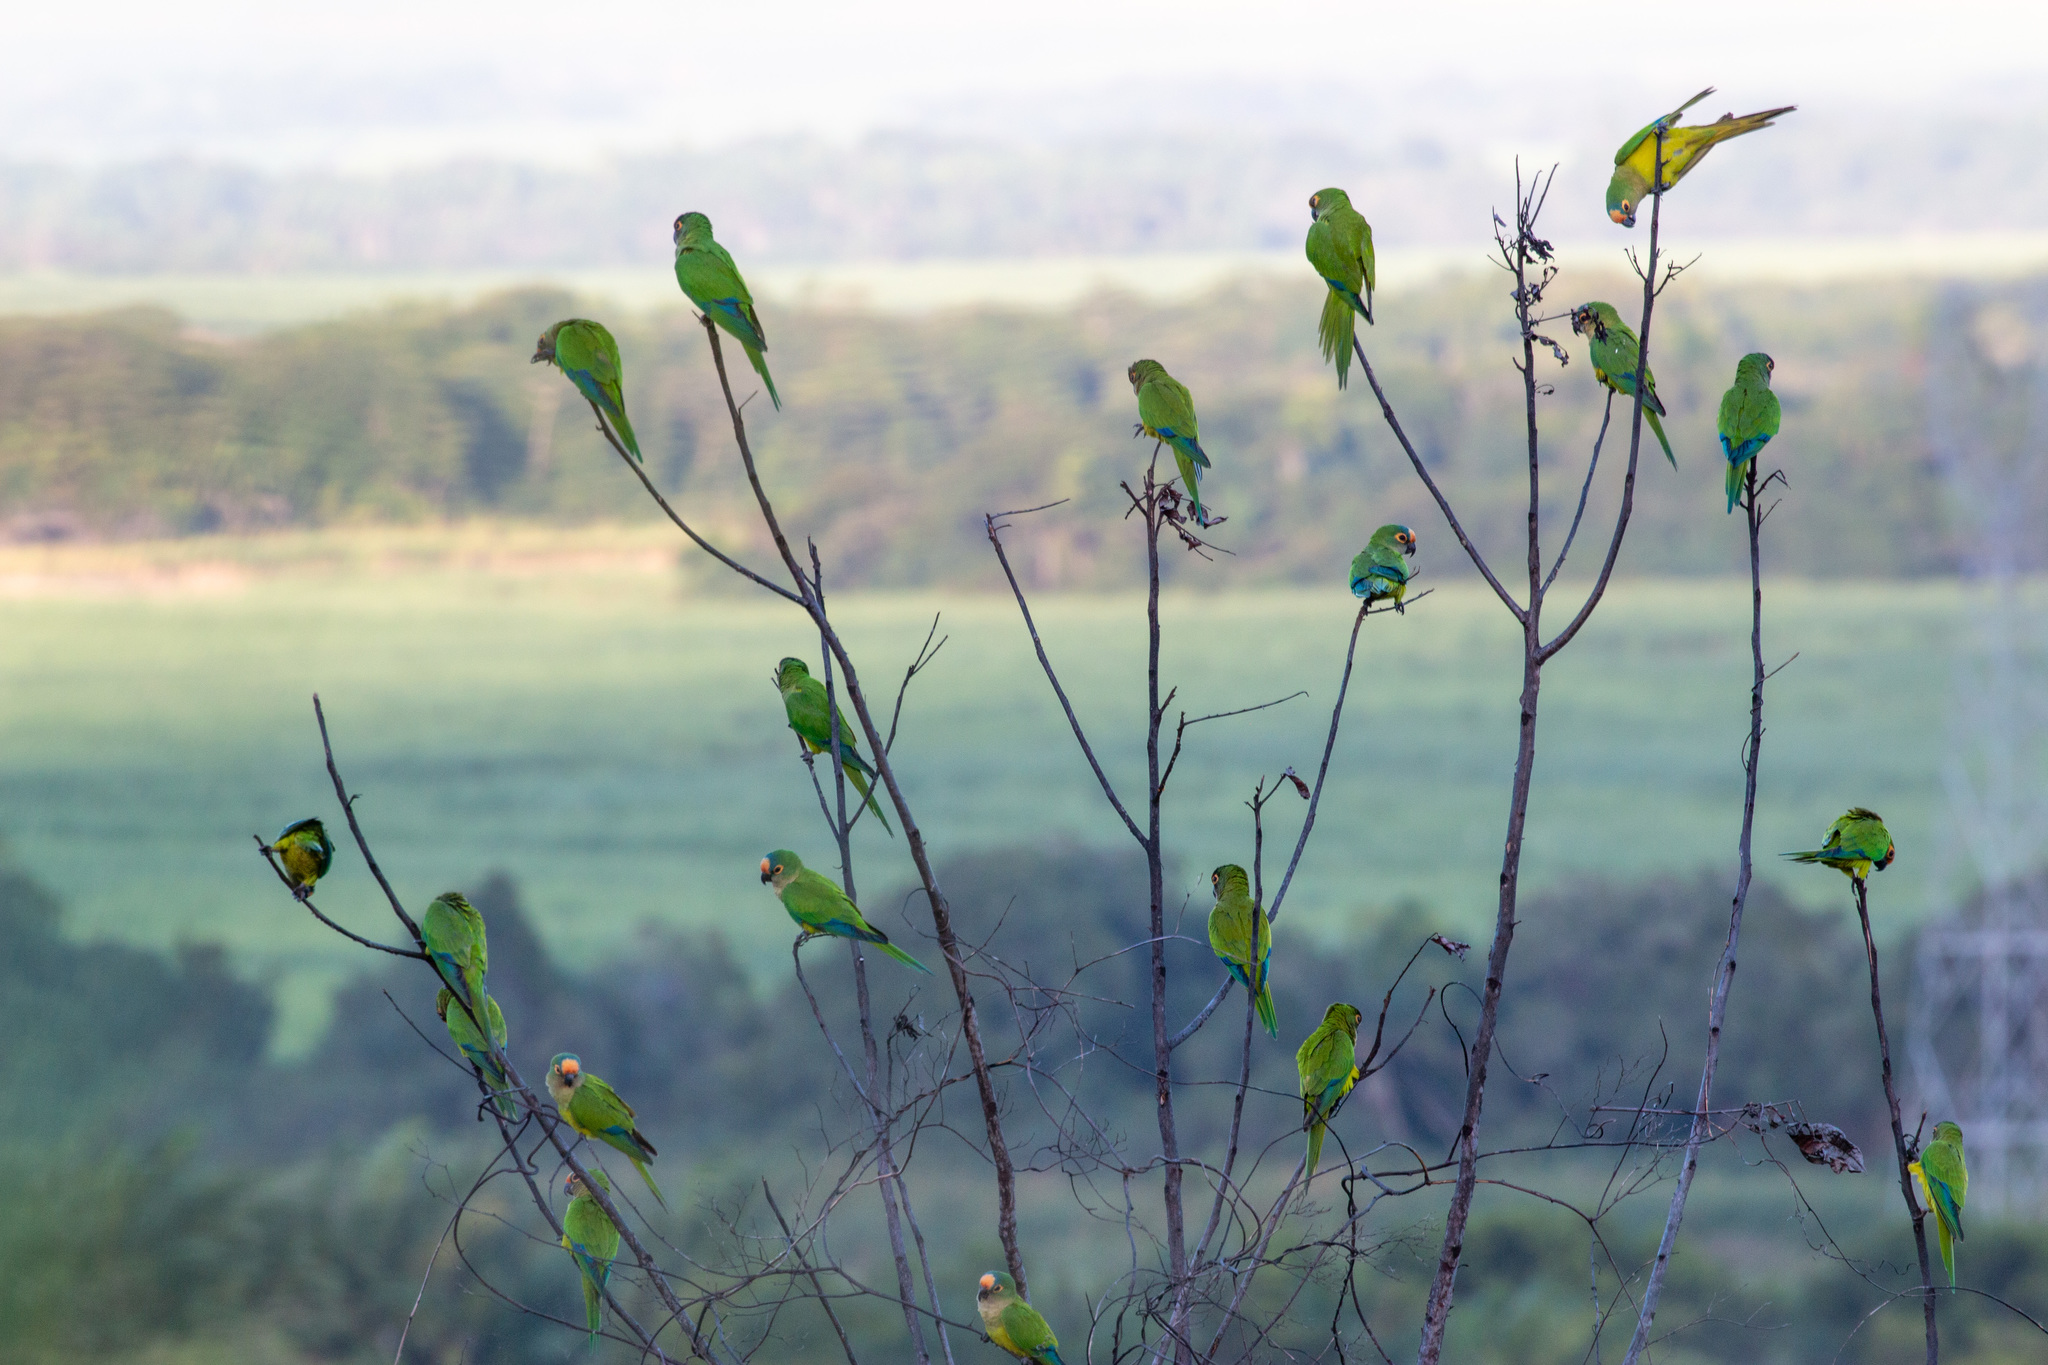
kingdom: Animalia
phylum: Chordata
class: Aves
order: Psittaciformes
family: Psittacidae
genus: Aratinga
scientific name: Aratinga aurea
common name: Peach-fronted parakeet
